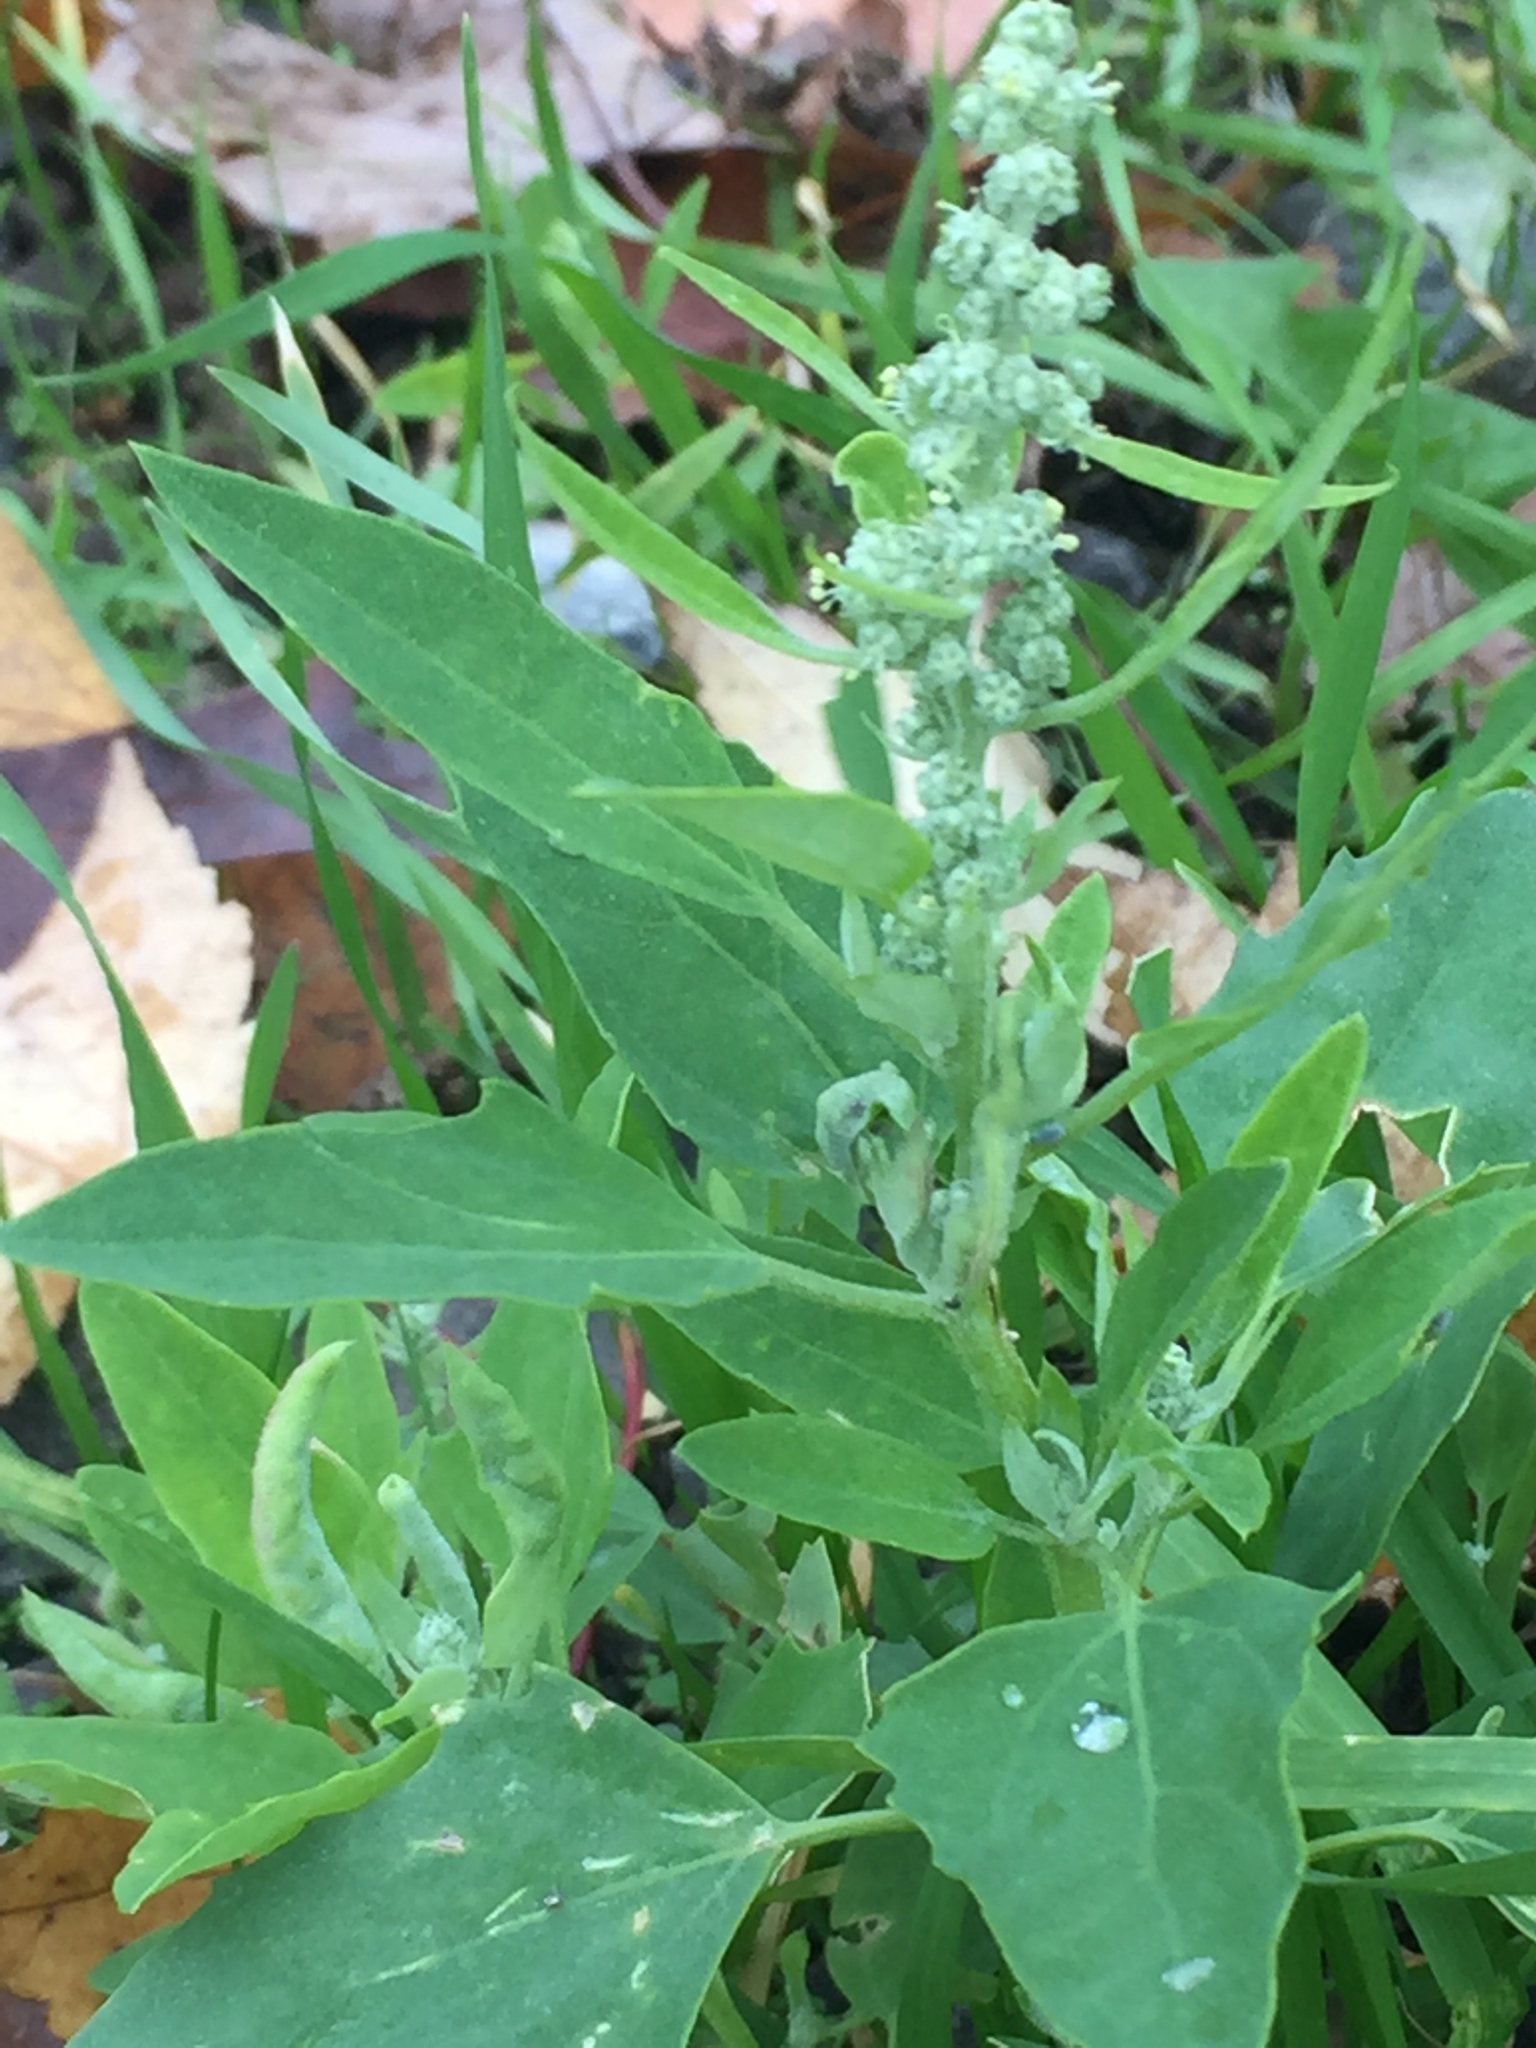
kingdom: Plantae
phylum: Tracheophyta
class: Magnoliopsida
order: Caryophyllales
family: Amaranthaceae
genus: Chenopodium
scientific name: Chenopodium album
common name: Fat-hen
